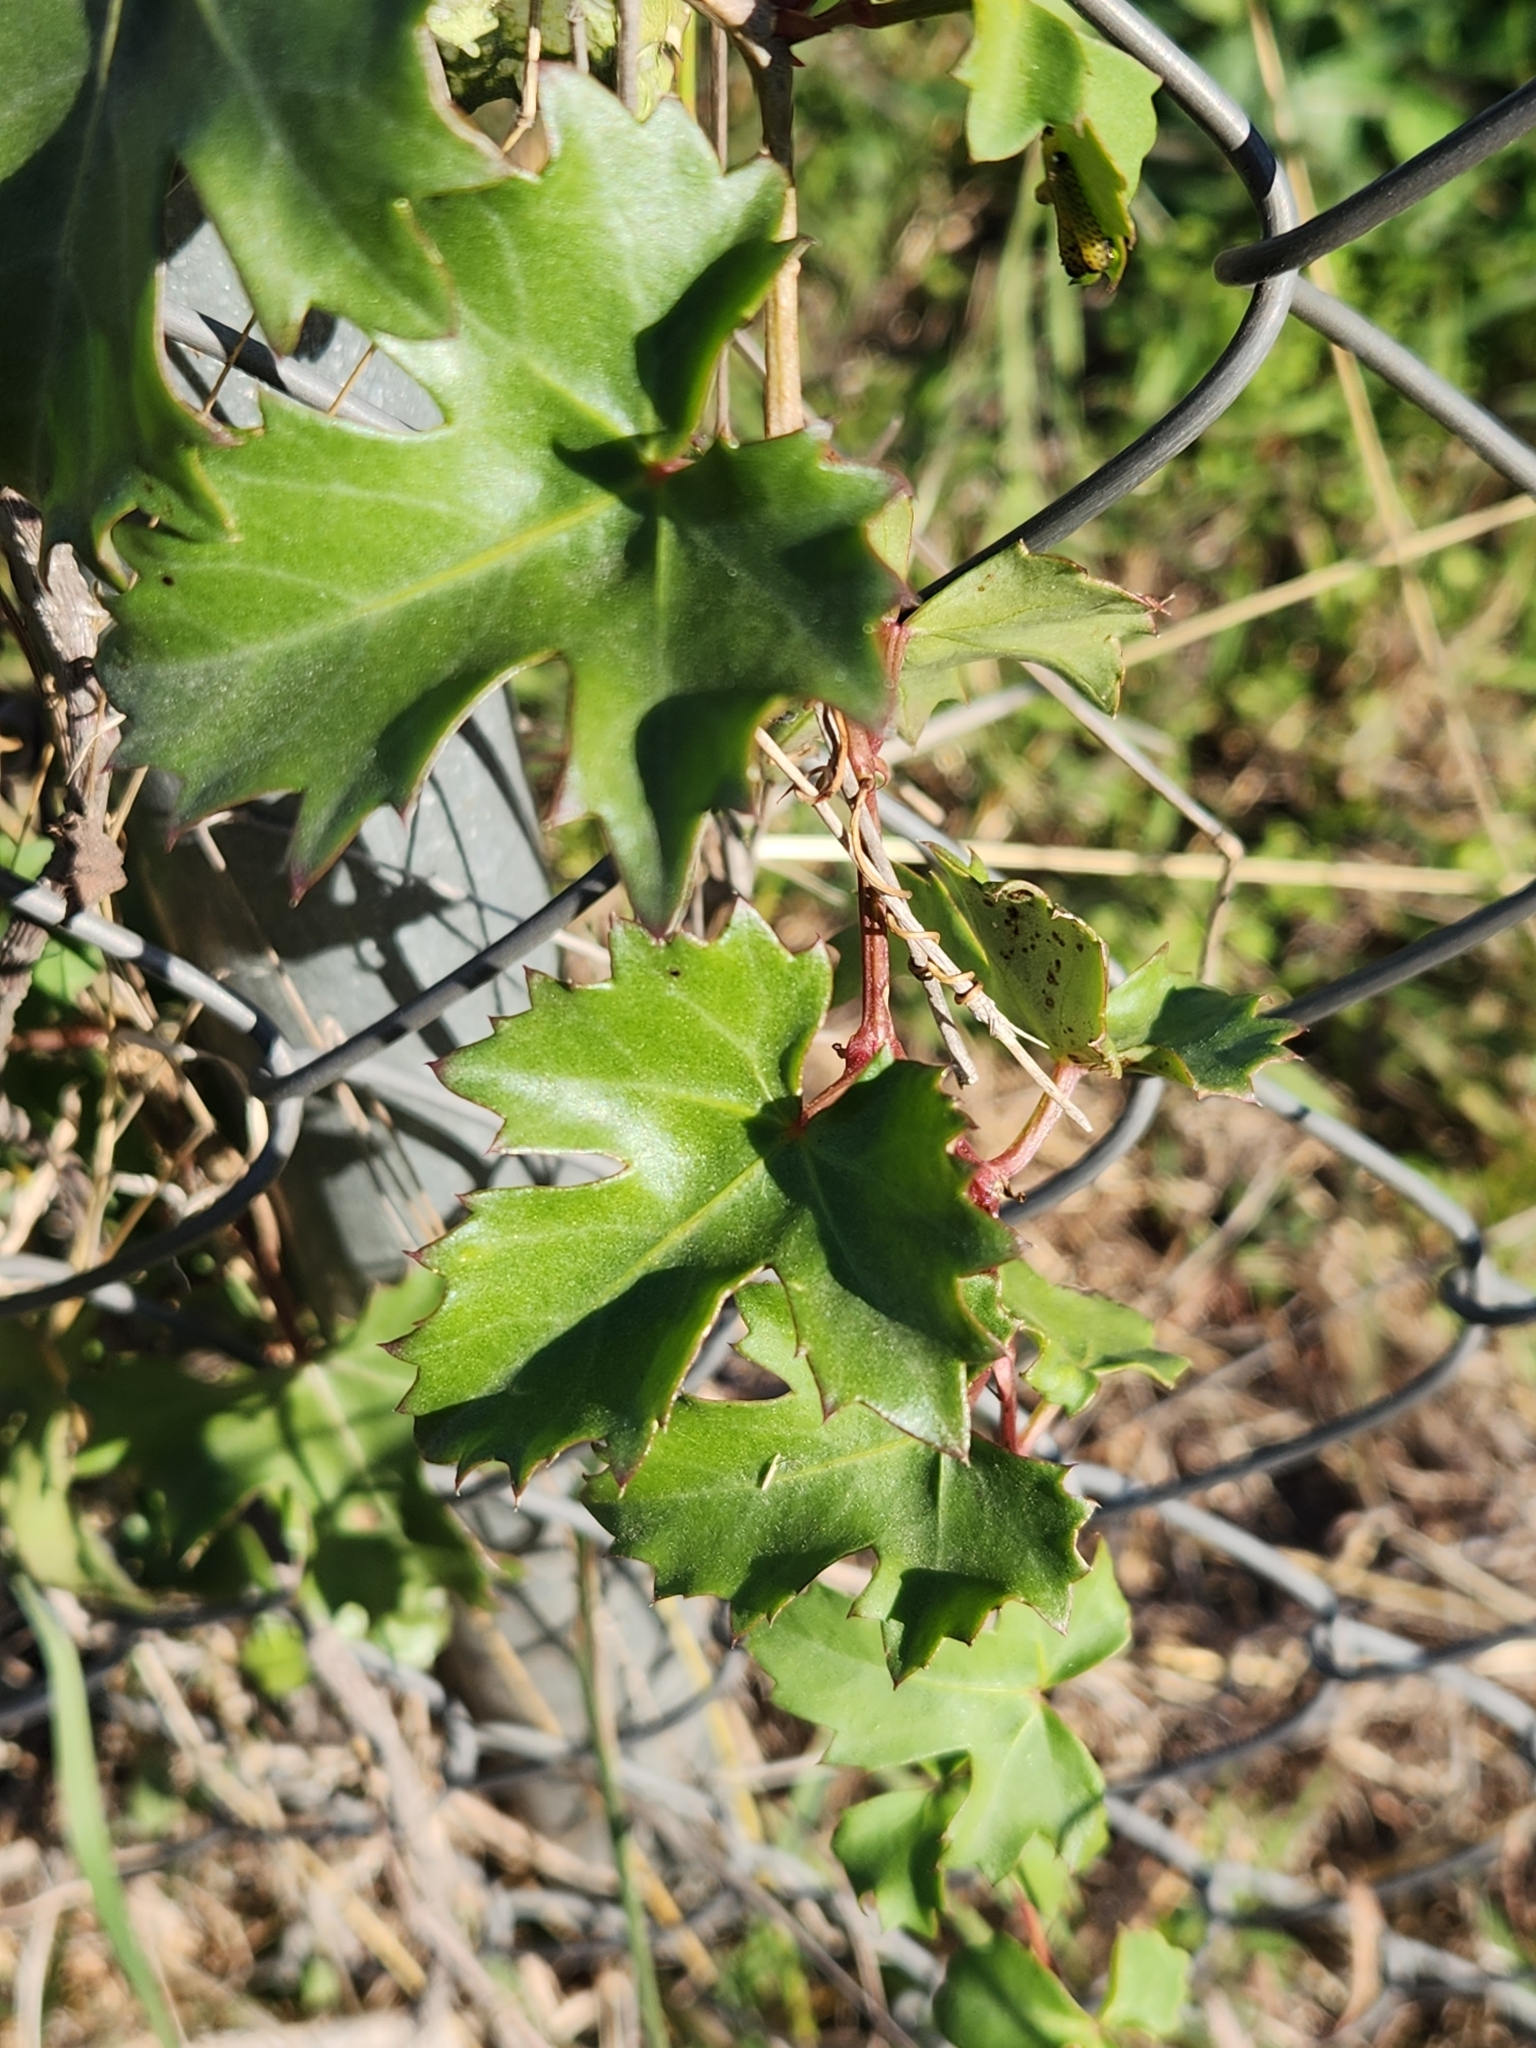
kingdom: Plantae
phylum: Tracheophyta
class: Magnoliopsida
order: Vitales
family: Vitaceae
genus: Cissus
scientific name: Cissus trifoliata
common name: Vine-sorrel
